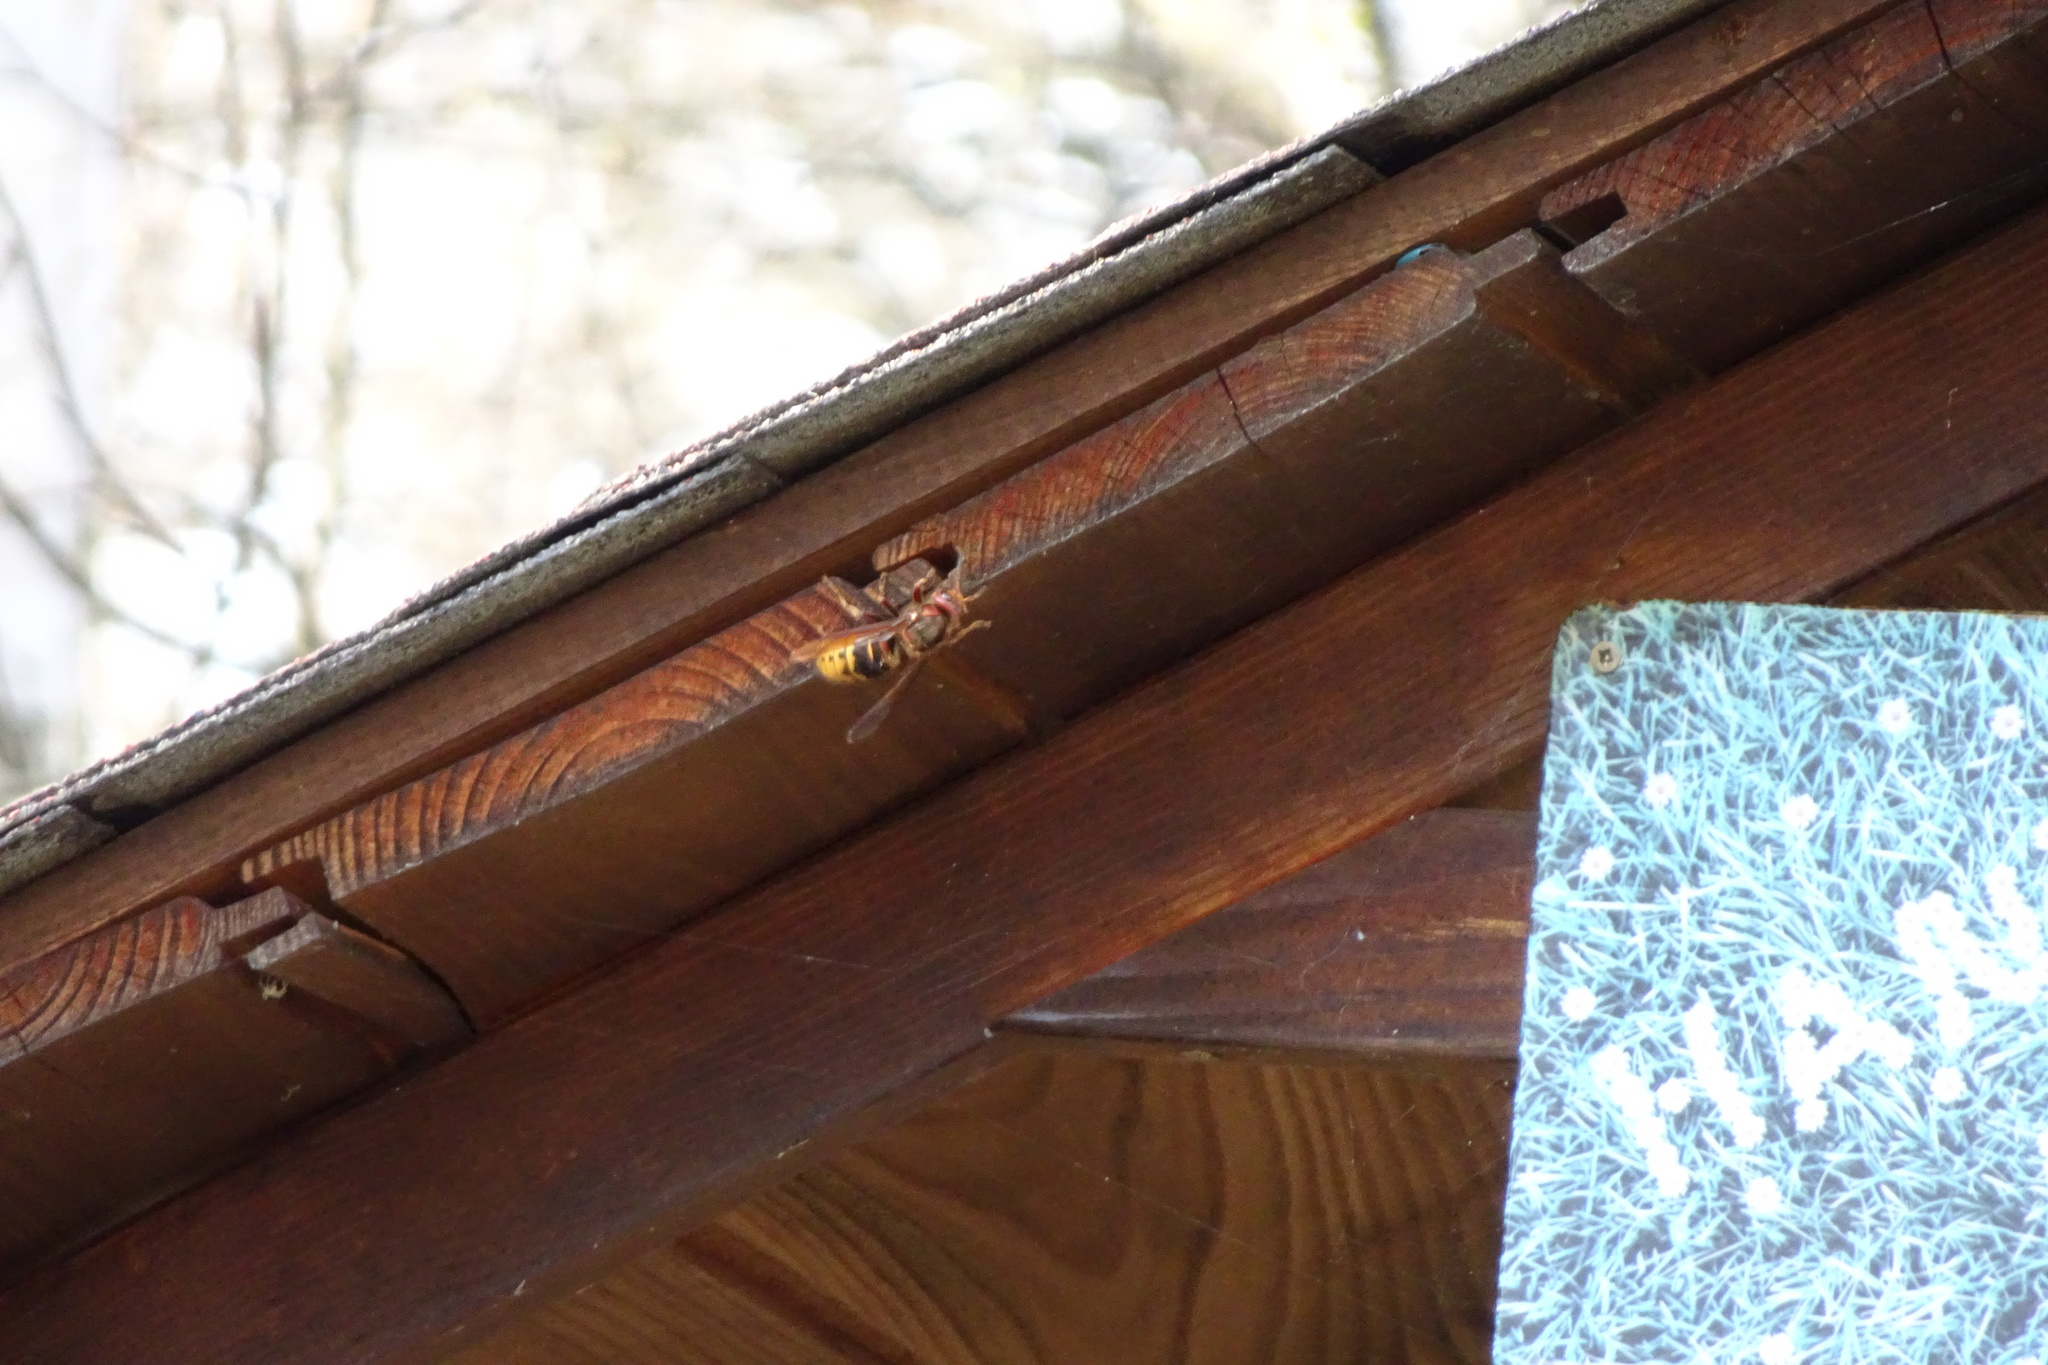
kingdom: Animalia
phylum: Arthropoda
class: Insecta
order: Hymenoptera
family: Vespidae
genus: Vespa
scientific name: Vespa crabro
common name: Hornet
